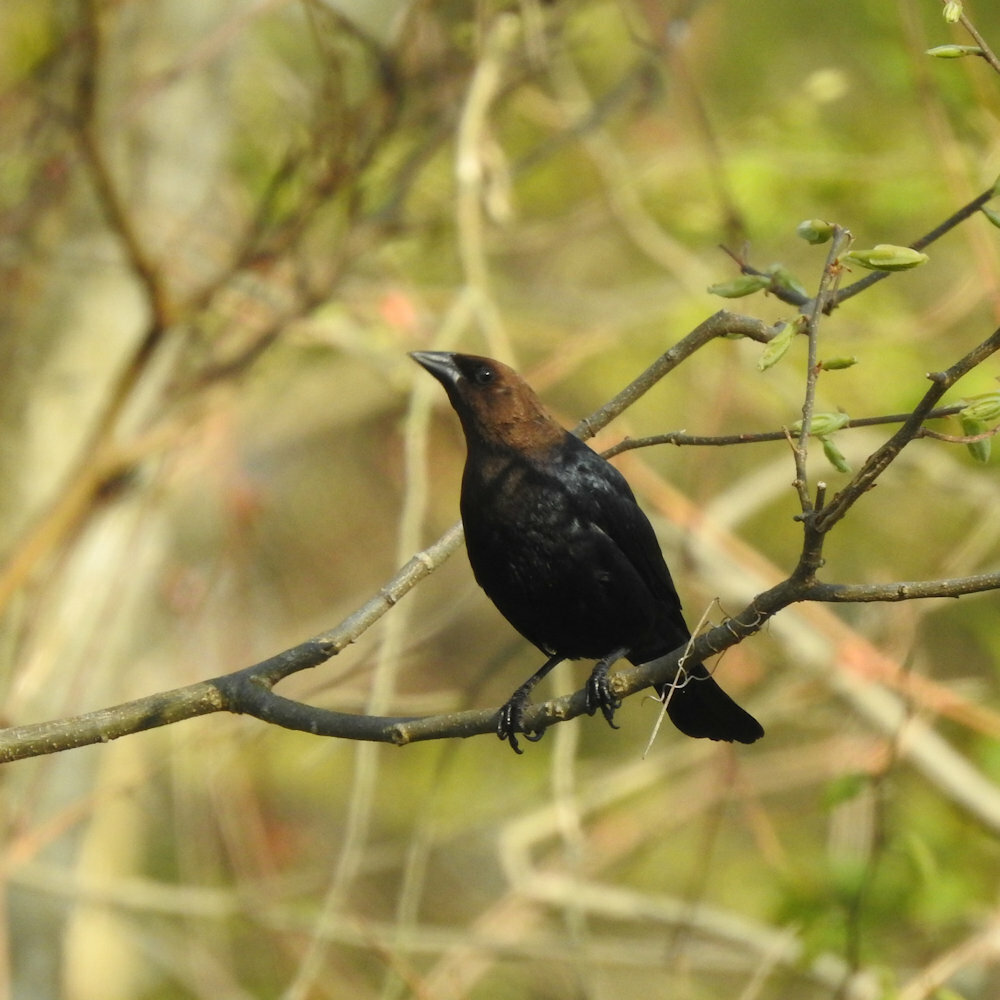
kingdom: Animalia
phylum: Chordata
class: Aves
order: Passeriformes
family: Icteridae
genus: Molothrus
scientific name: Molothrus ater
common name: Brown-headed cowbird
